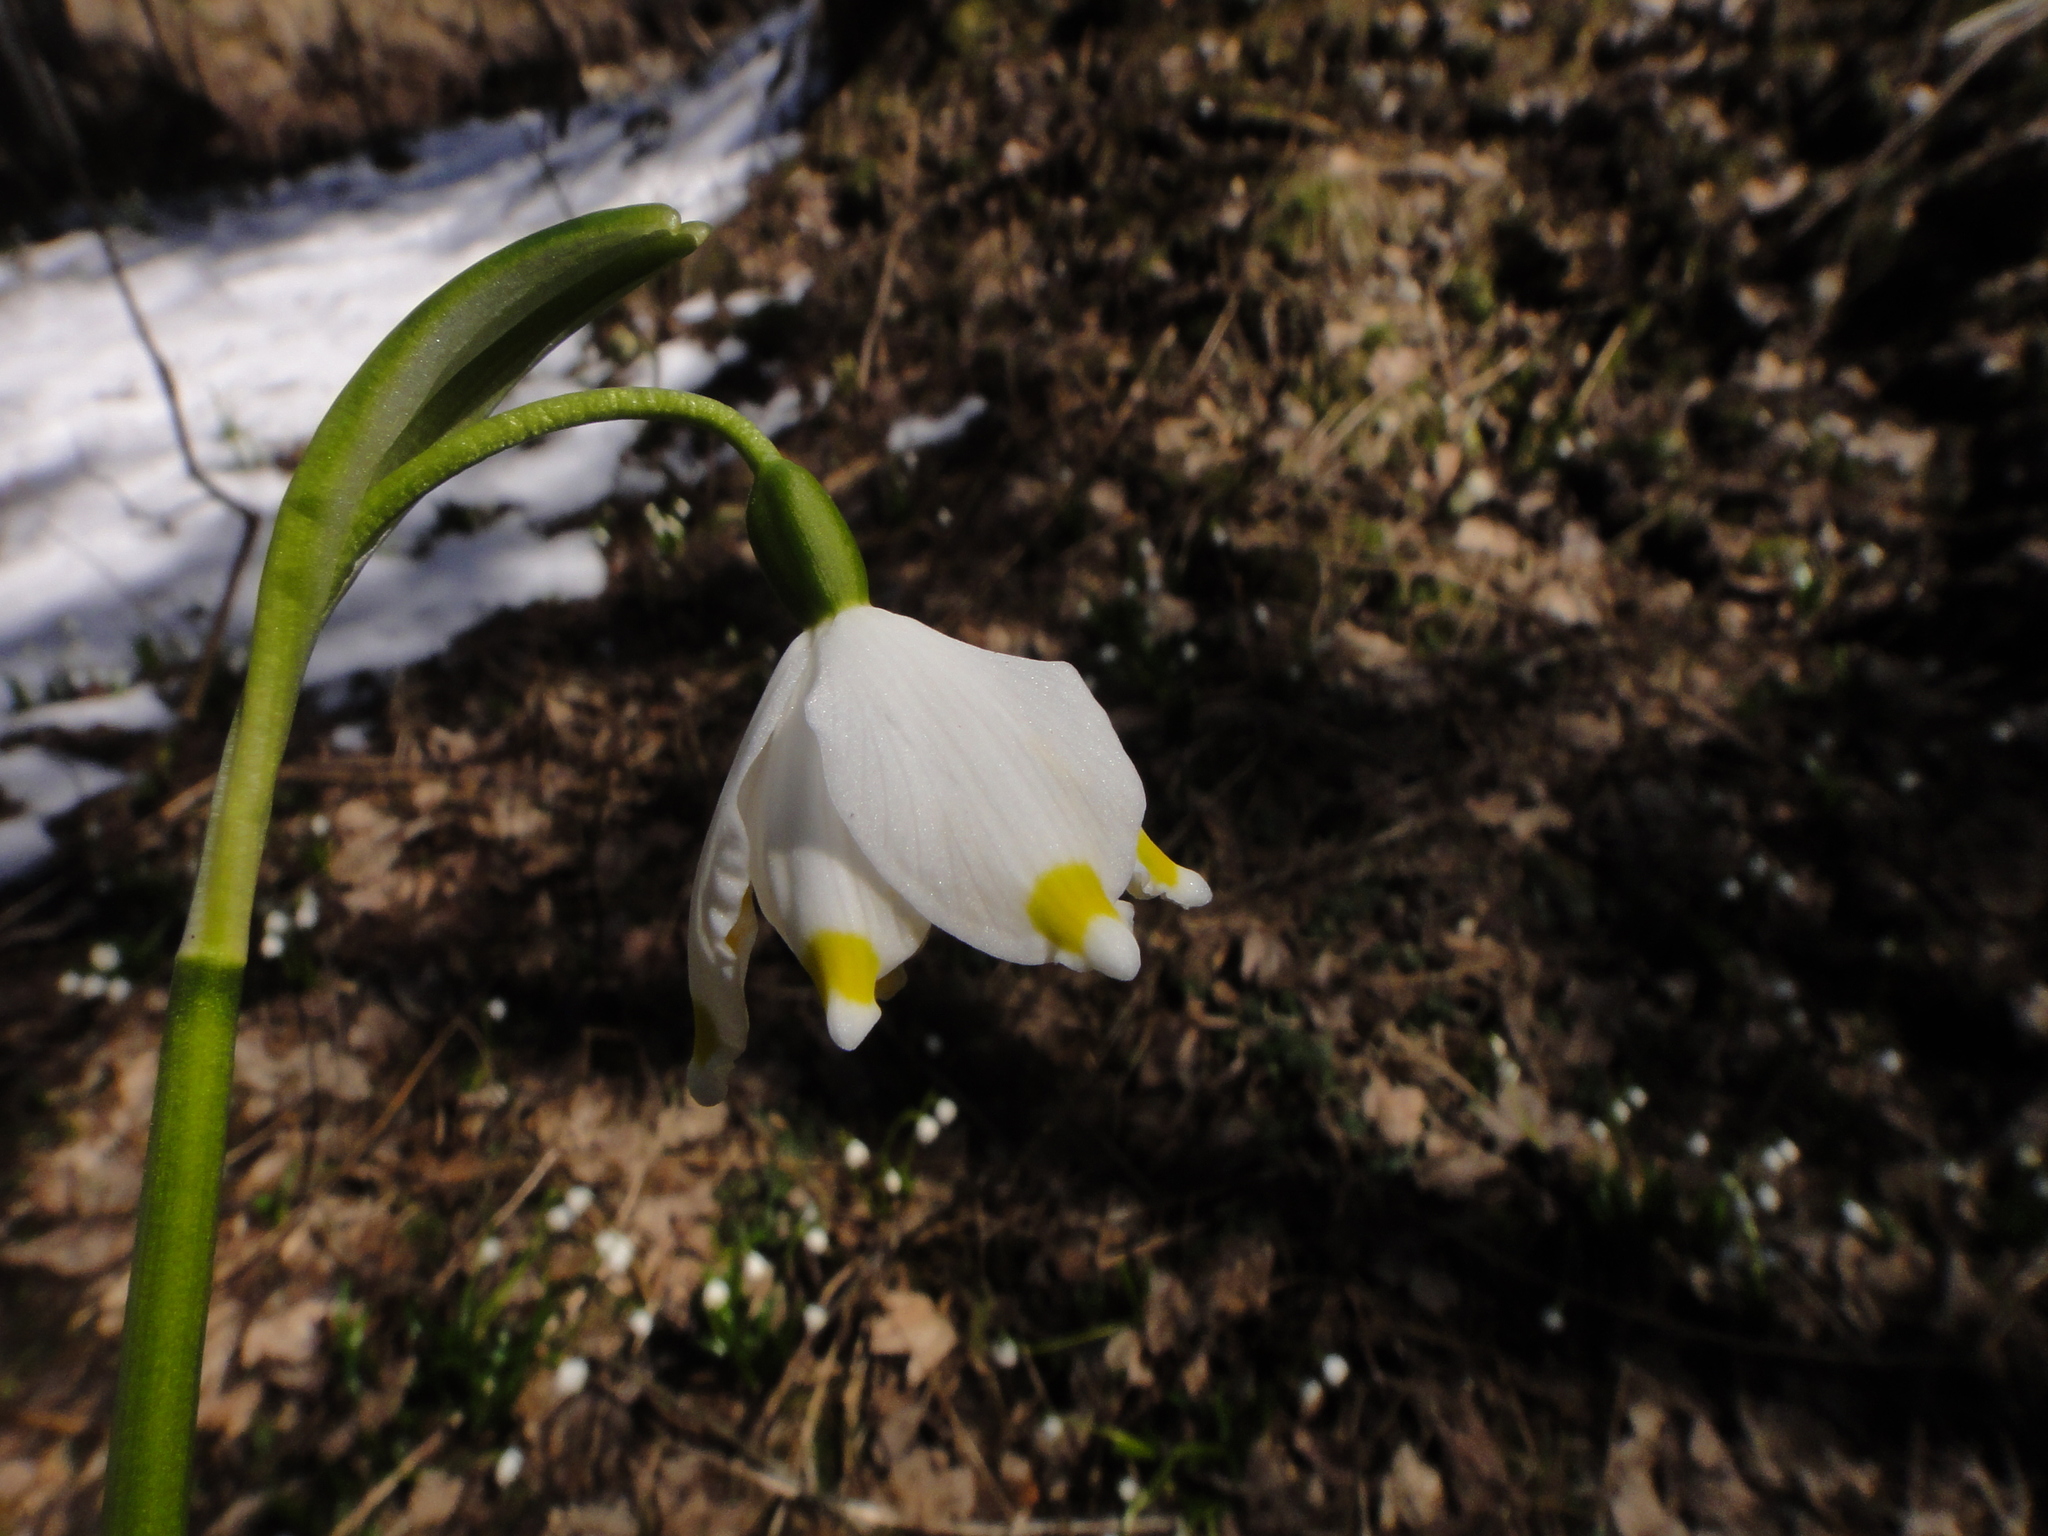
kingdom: Plantae
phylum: Tracheophyta
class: Liliopsida
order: Asparagales
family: Amaryllidaceae
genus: Leucojum
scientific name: Leucojum vernum
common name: Spring snowflake
